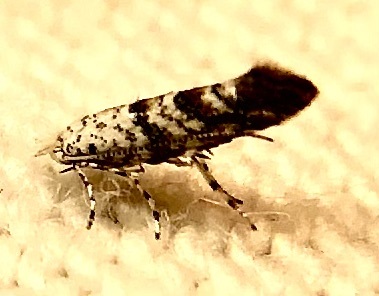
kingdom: Animalia
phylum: Arthropoda
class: Insecta
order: Lepidoptera
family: Gracillariidae
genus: Cameraria
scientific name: Cameraria hamadryadella
